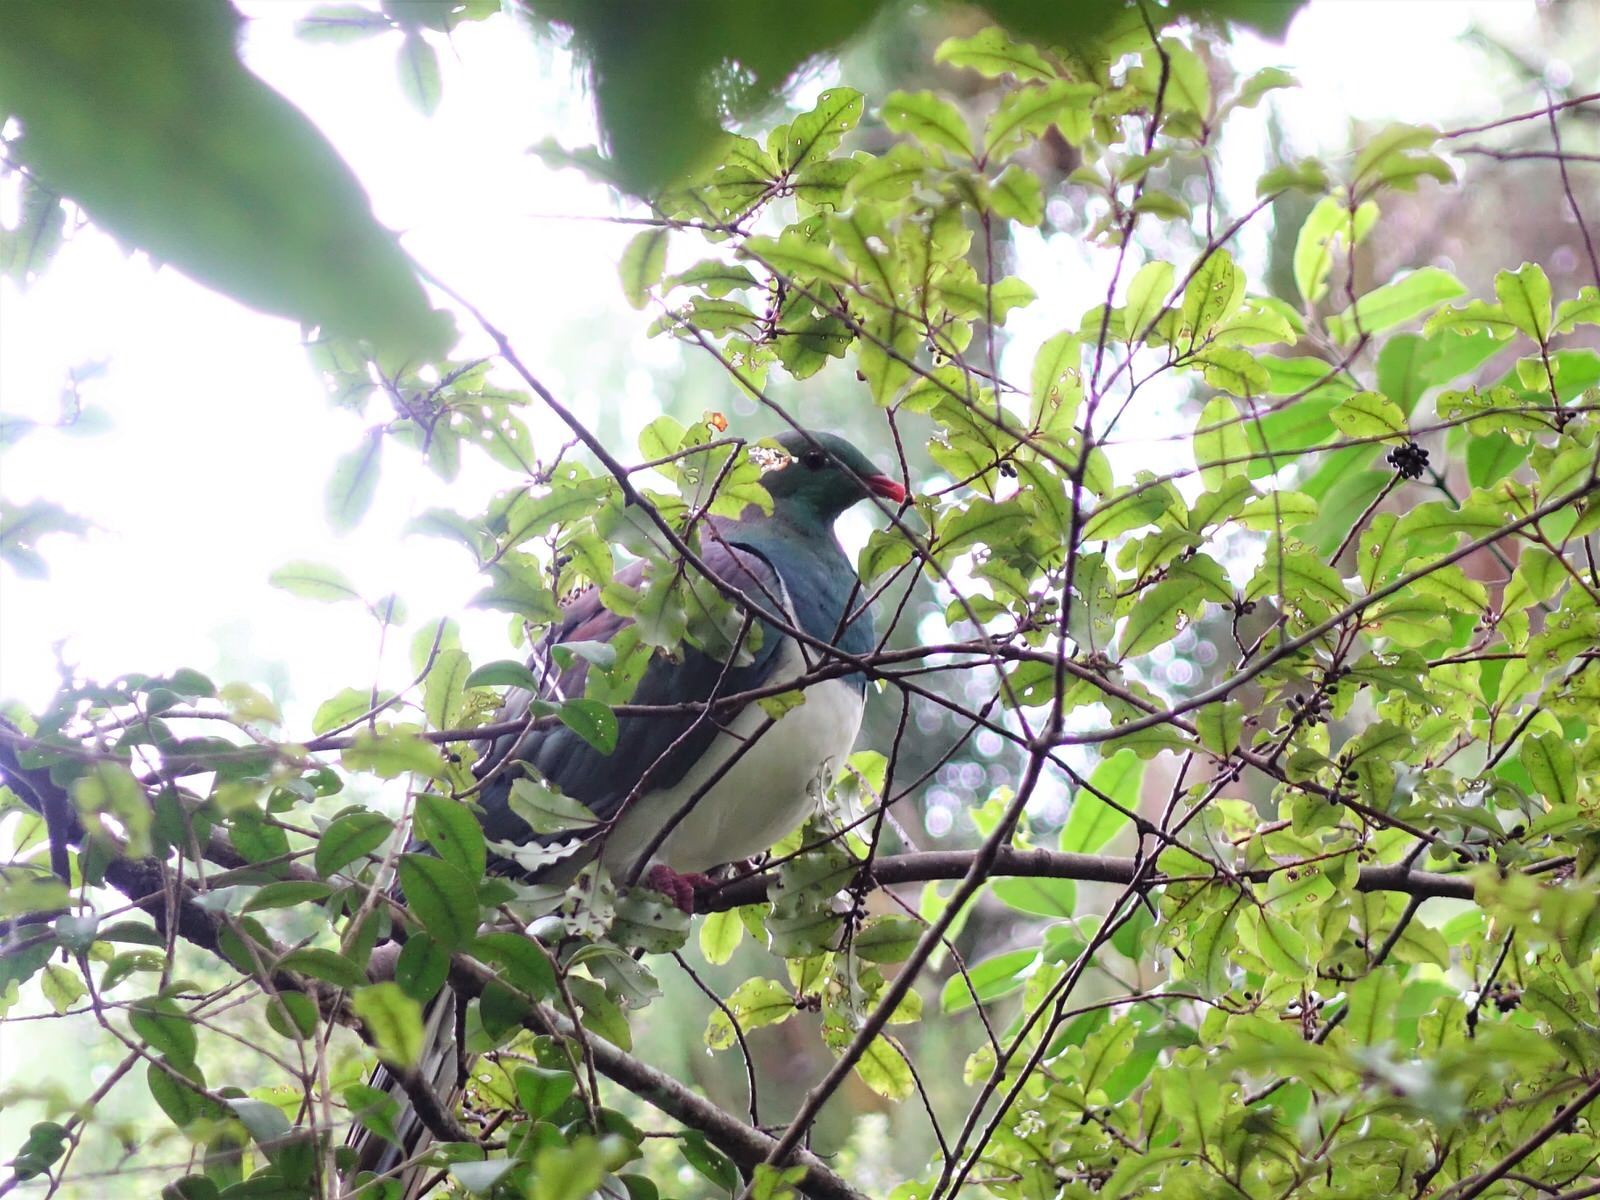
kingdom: Animalia
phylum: Chordata
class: Aves
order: Columbiformes
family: Columbidae
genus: Hemiphaga
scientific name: Hemiphaga novaeseelandiae
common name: New zealand pigeon
